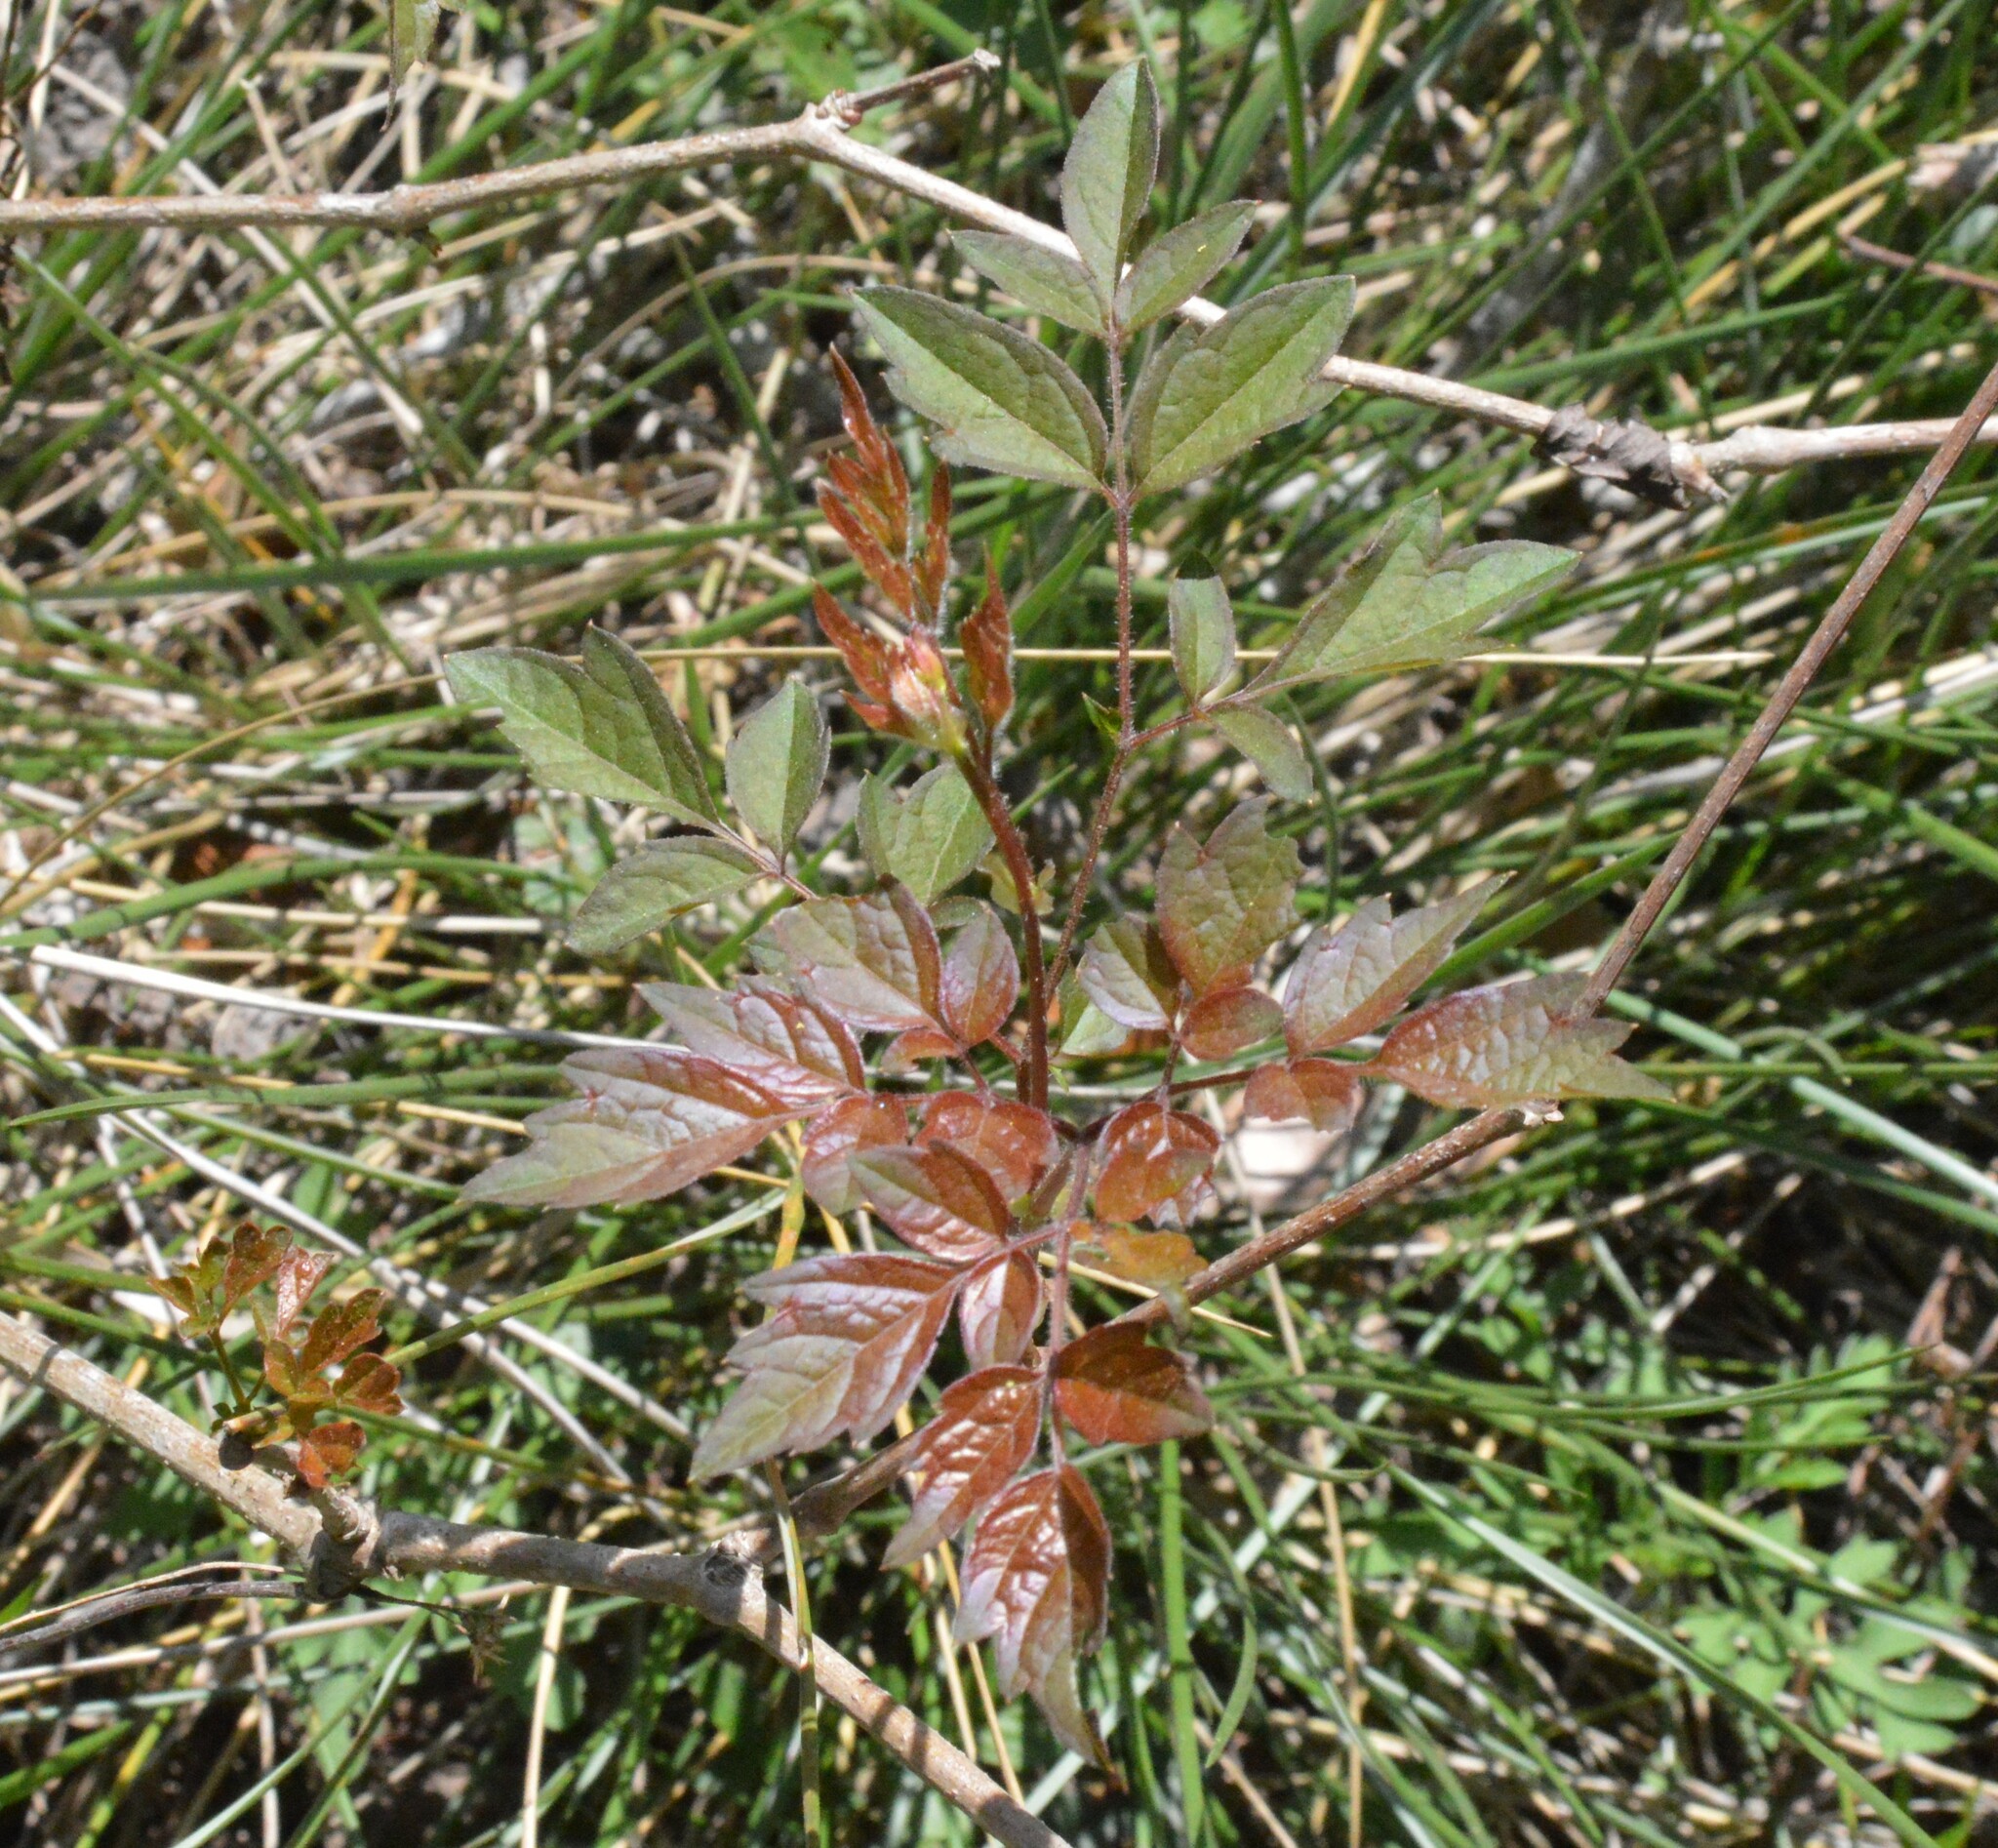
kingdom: Plantae
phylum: Tracheophyta
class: Magnoliopsida
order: Vitales
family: Vitaceae
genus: Nekemias
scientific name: Nekemias arborea
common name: Peppervine
